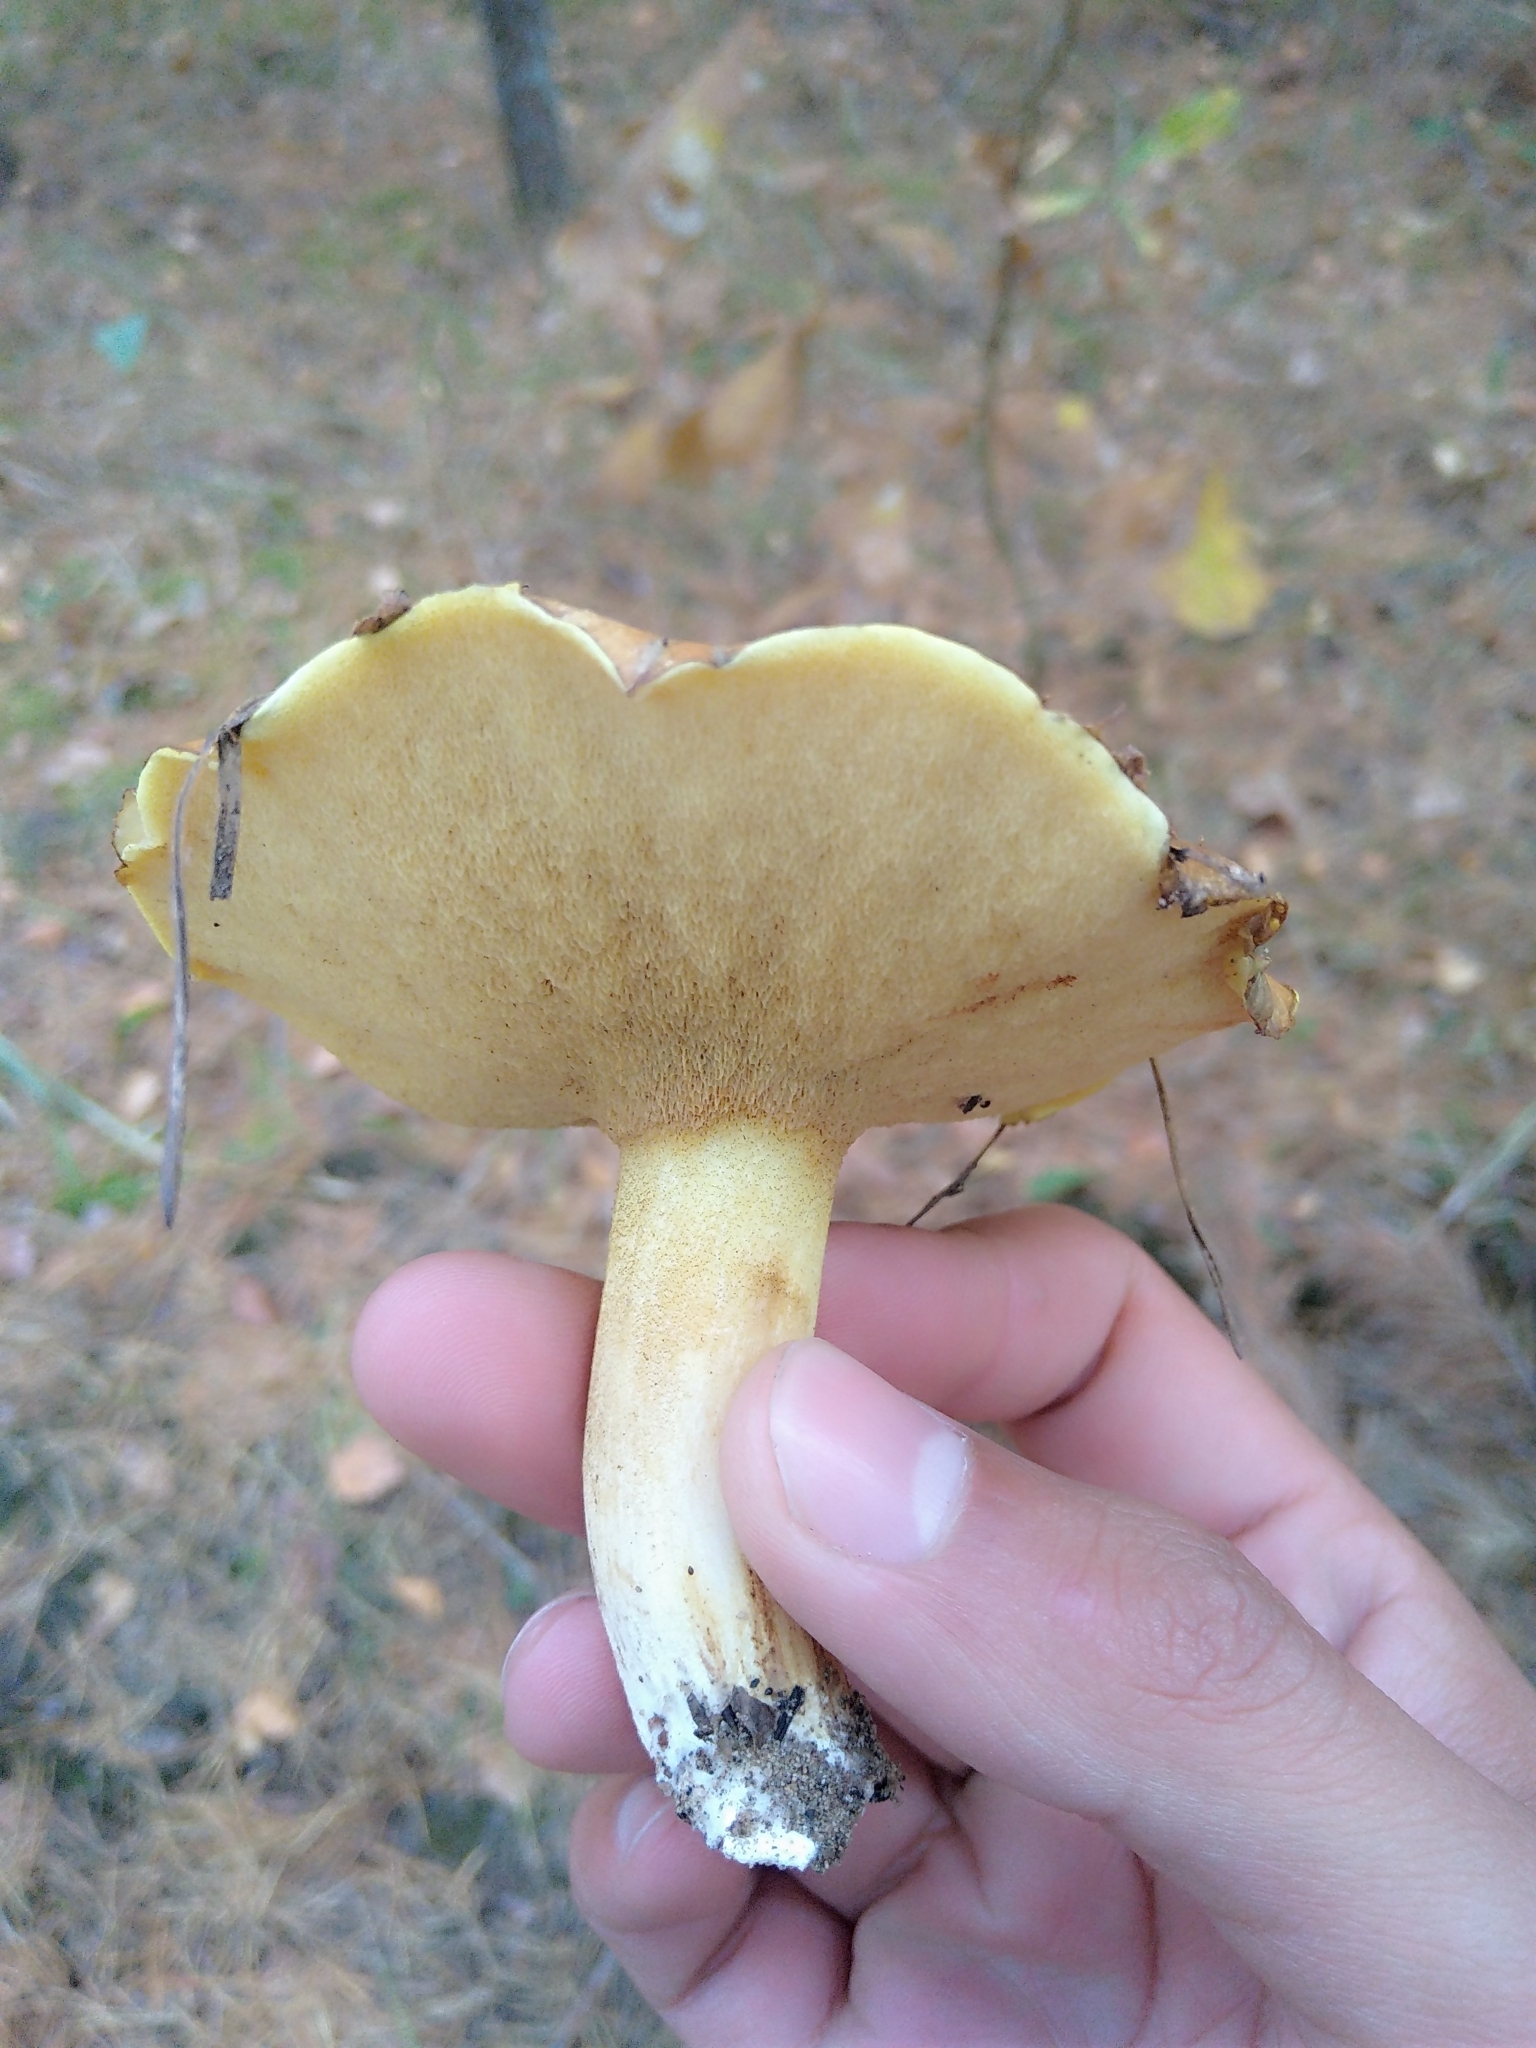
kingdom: Fungi
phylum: Basidiomycota
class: Agaricomycetes
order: Boletales
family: Suillaceae
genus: Suillus
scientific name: Suillus collinitus
